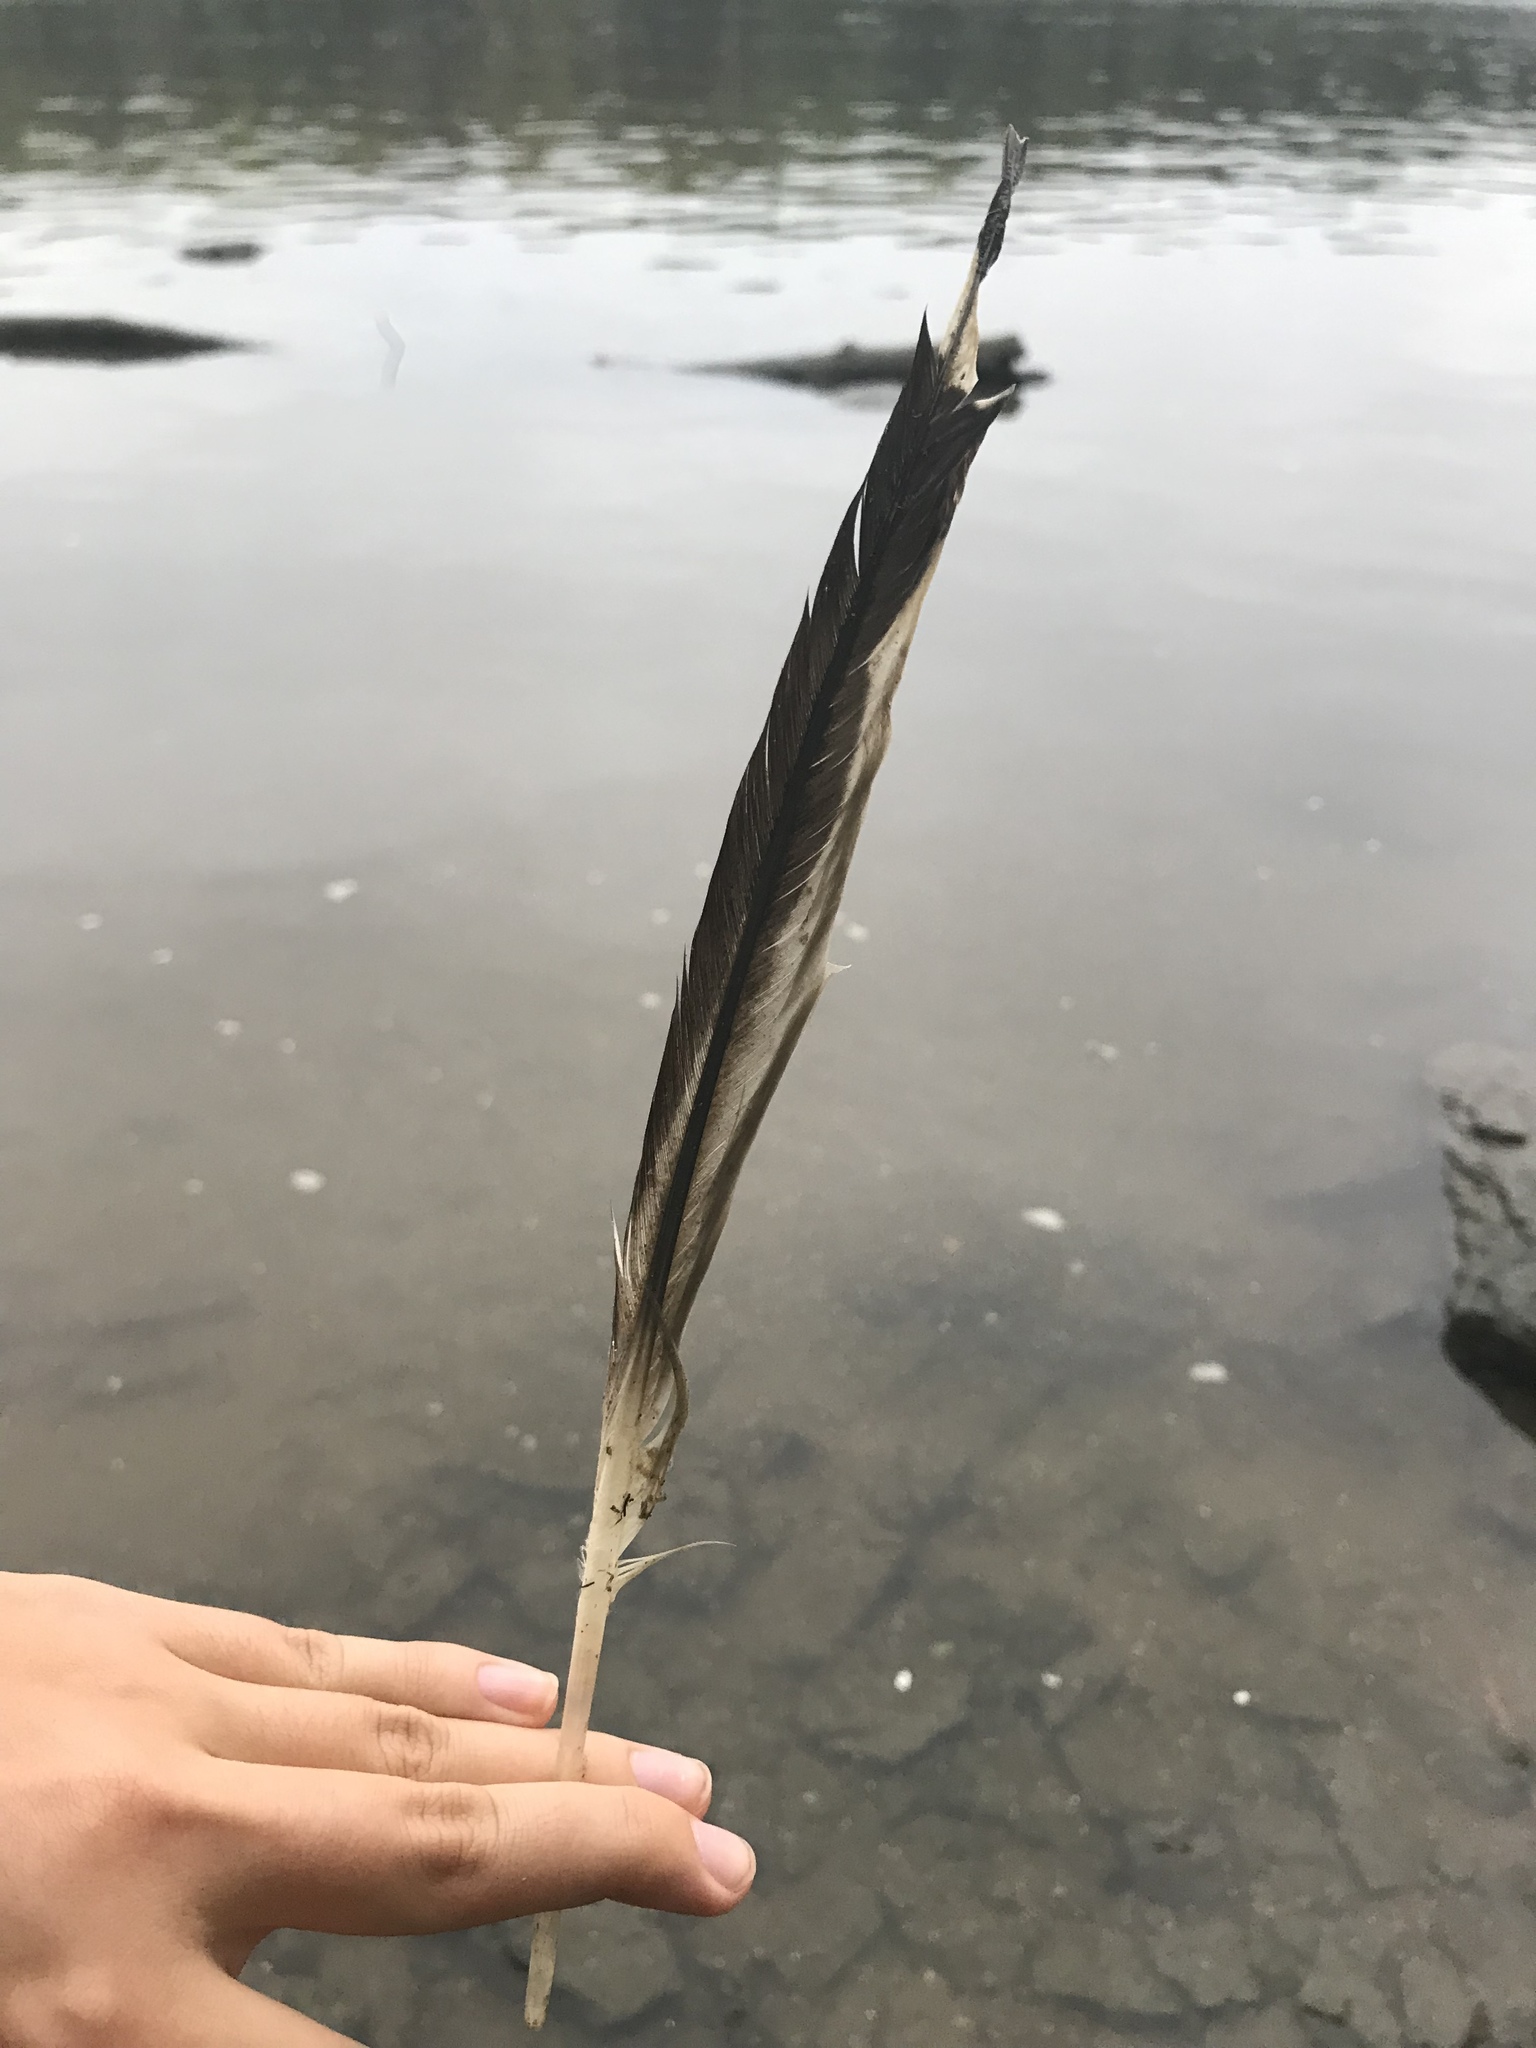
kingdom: Animalia
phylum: Chordata
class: Aves
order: Charadriiformes
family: Laridae
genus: Larus
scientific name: Larus delawarensis
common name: Ring-billed gull
